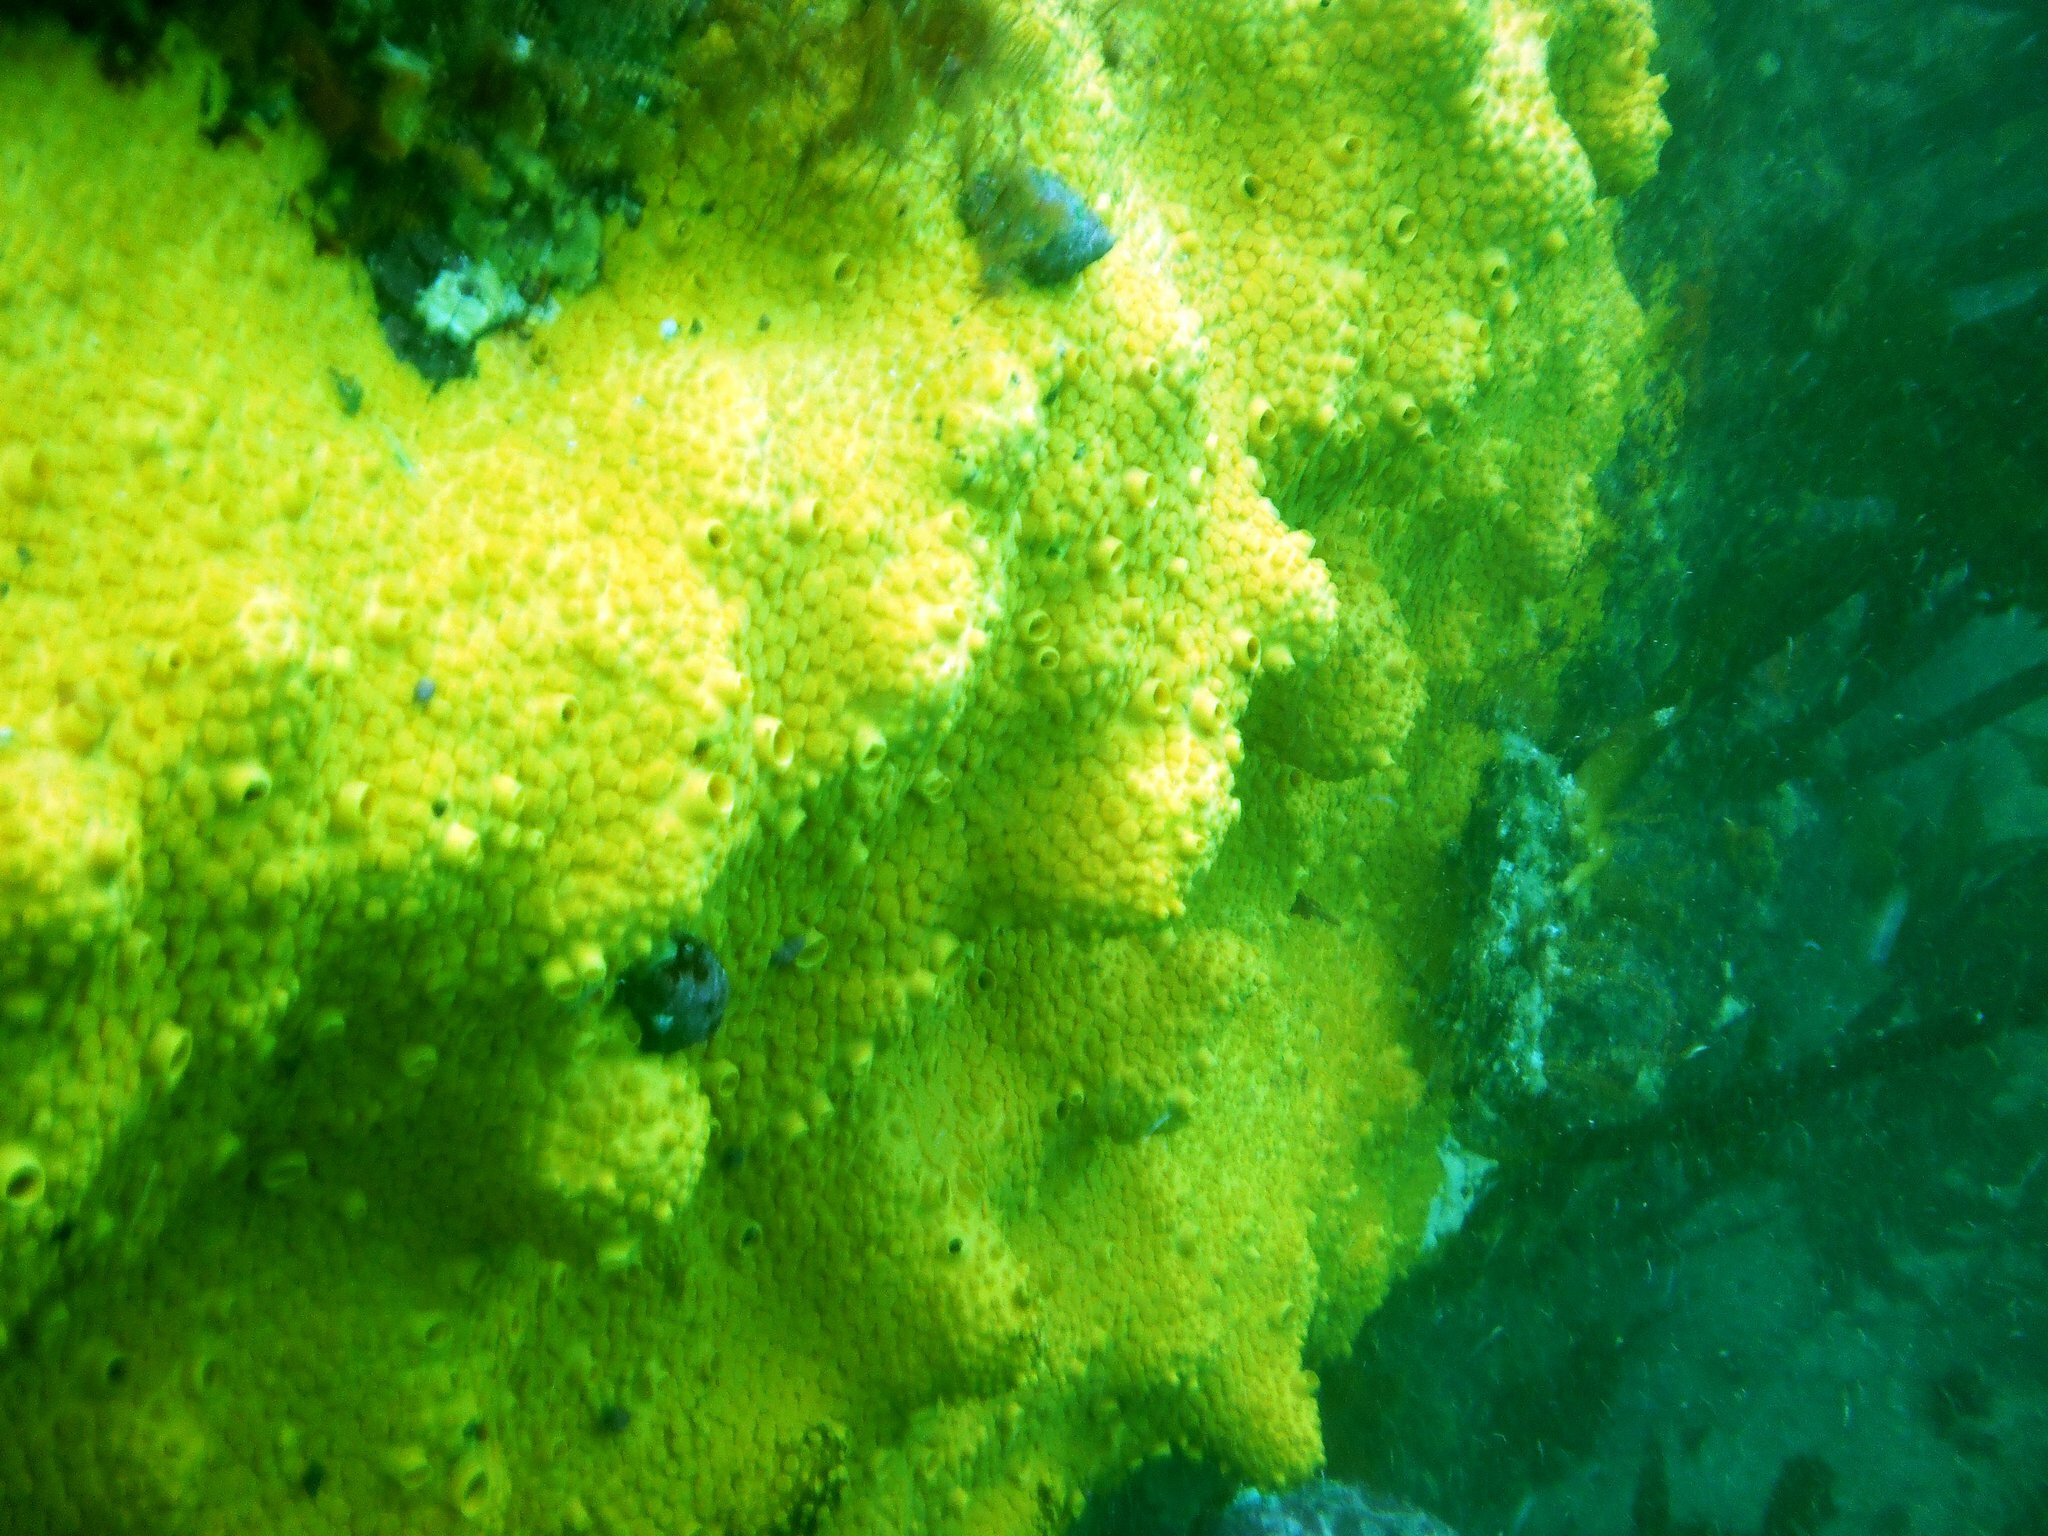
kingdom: Animalia
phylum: Porifera
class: Demospongiae
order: Clionaida
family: Clionaidae
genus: Cliona
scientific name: Cliona celata
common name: Boring sponge
